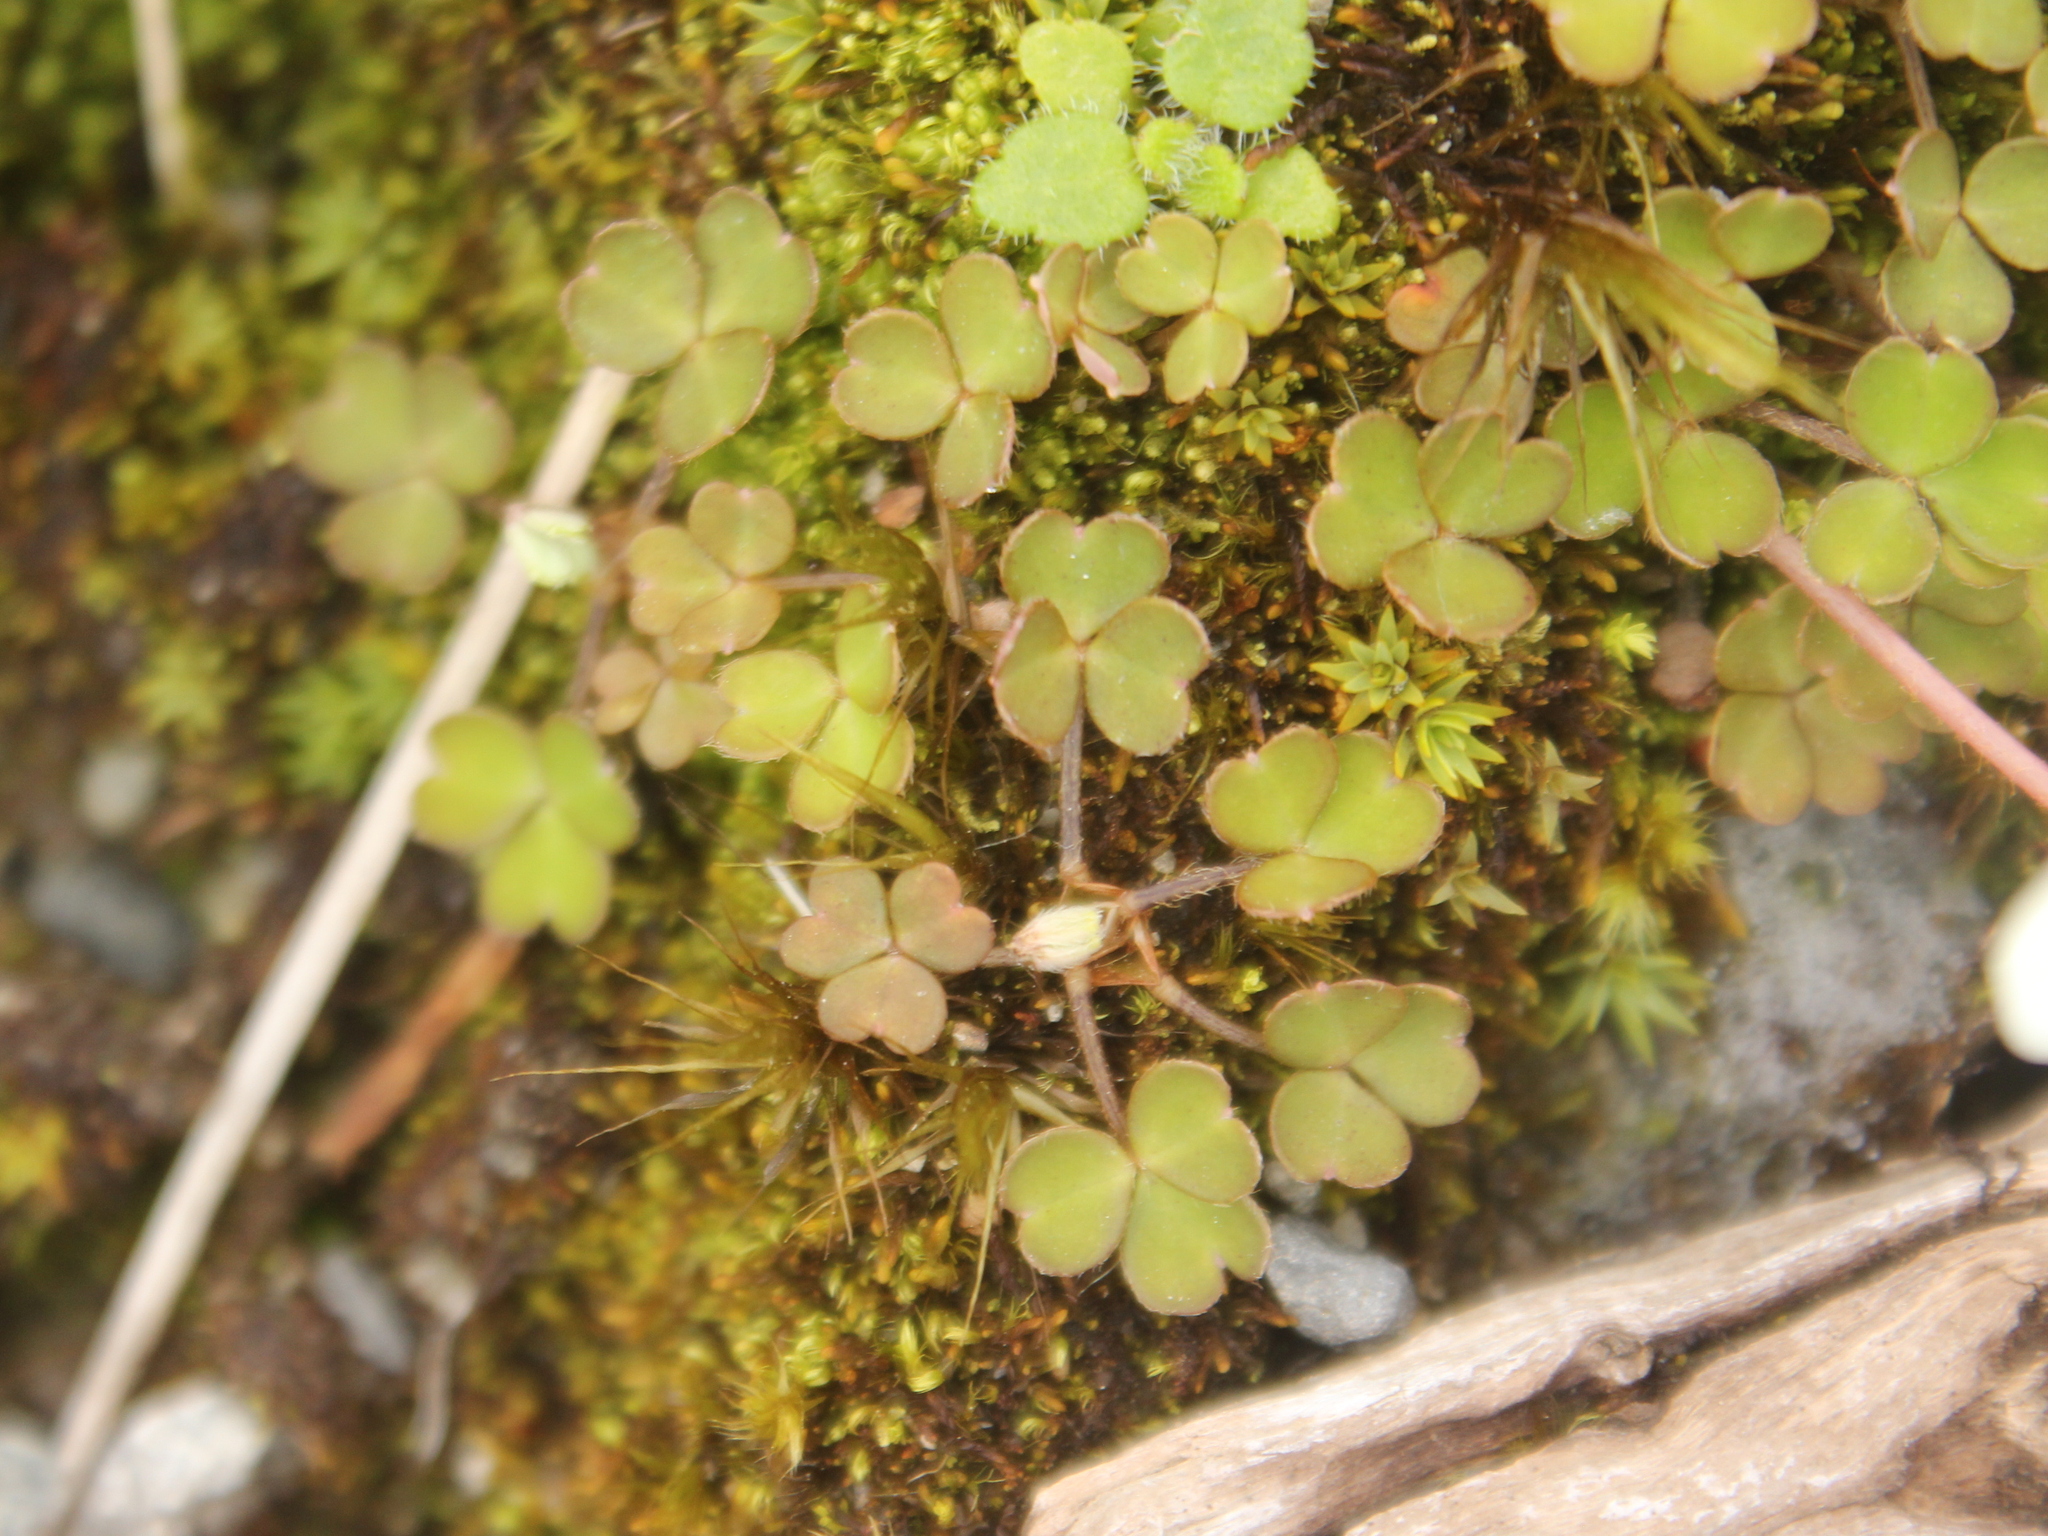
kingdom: Plantae
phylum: Tracheophyta
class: Magnoliopsida
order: Oxalidales
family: Oxalidaceae
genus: Oxalis
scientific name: Oxalis magellanica
